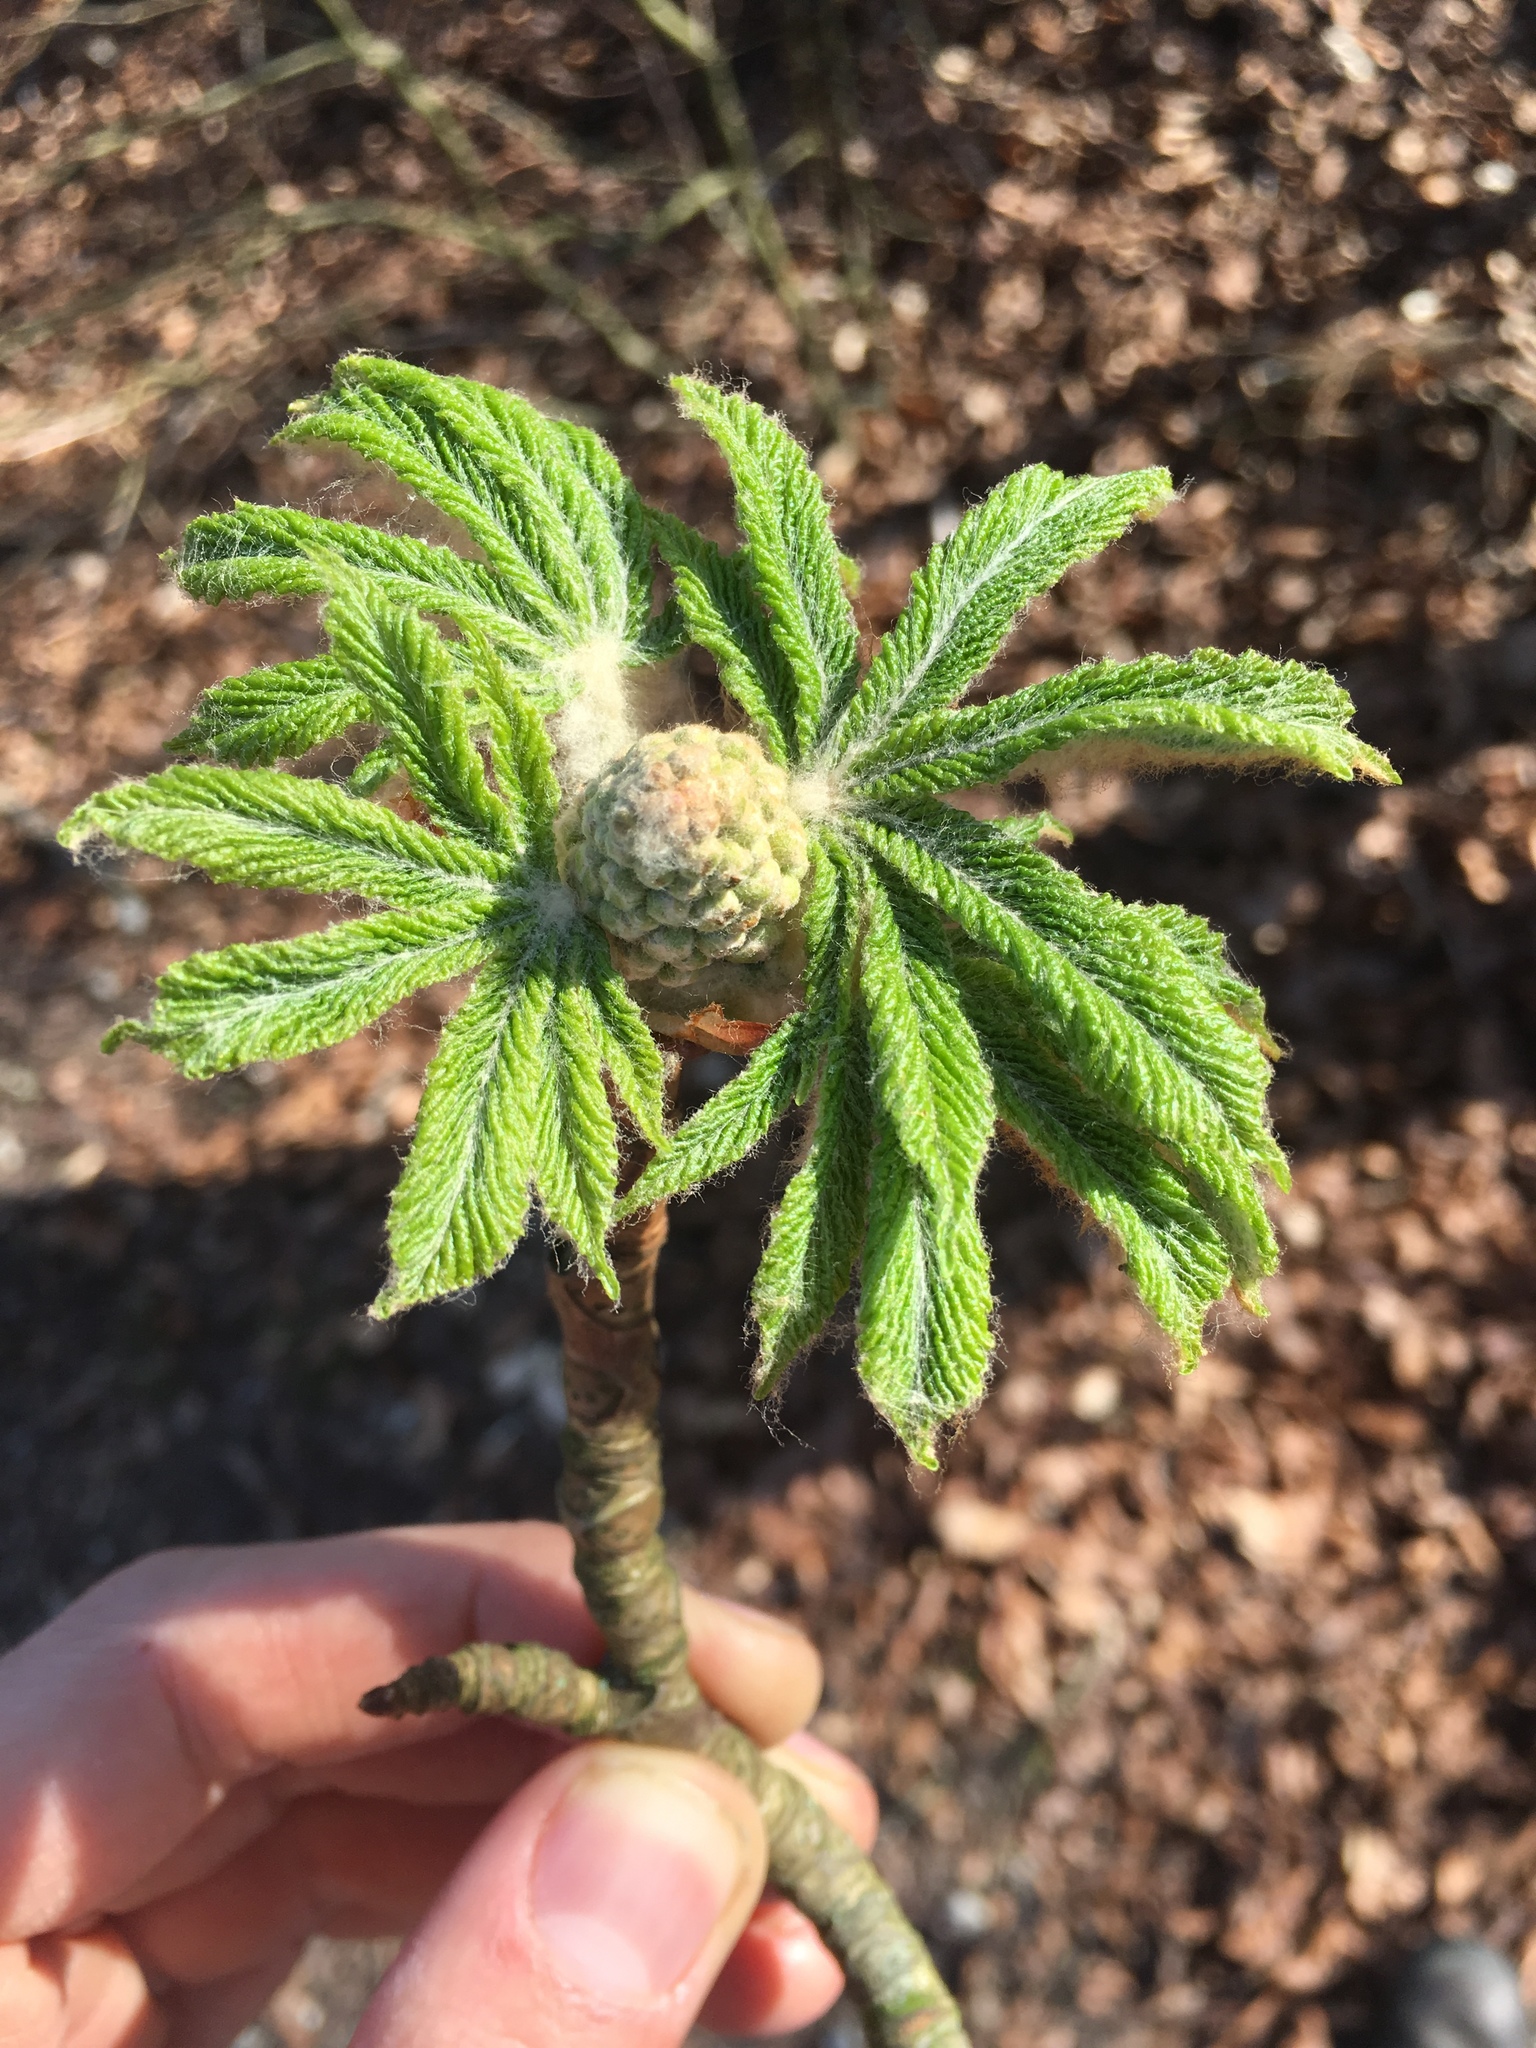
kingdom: Plantae
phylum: Tracheophyta
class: Magnoliopsida
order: Sapindales
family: Sapindaceae
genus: Aesculus
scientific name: Aesculus hippocastanum
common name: Horse-chestnut
